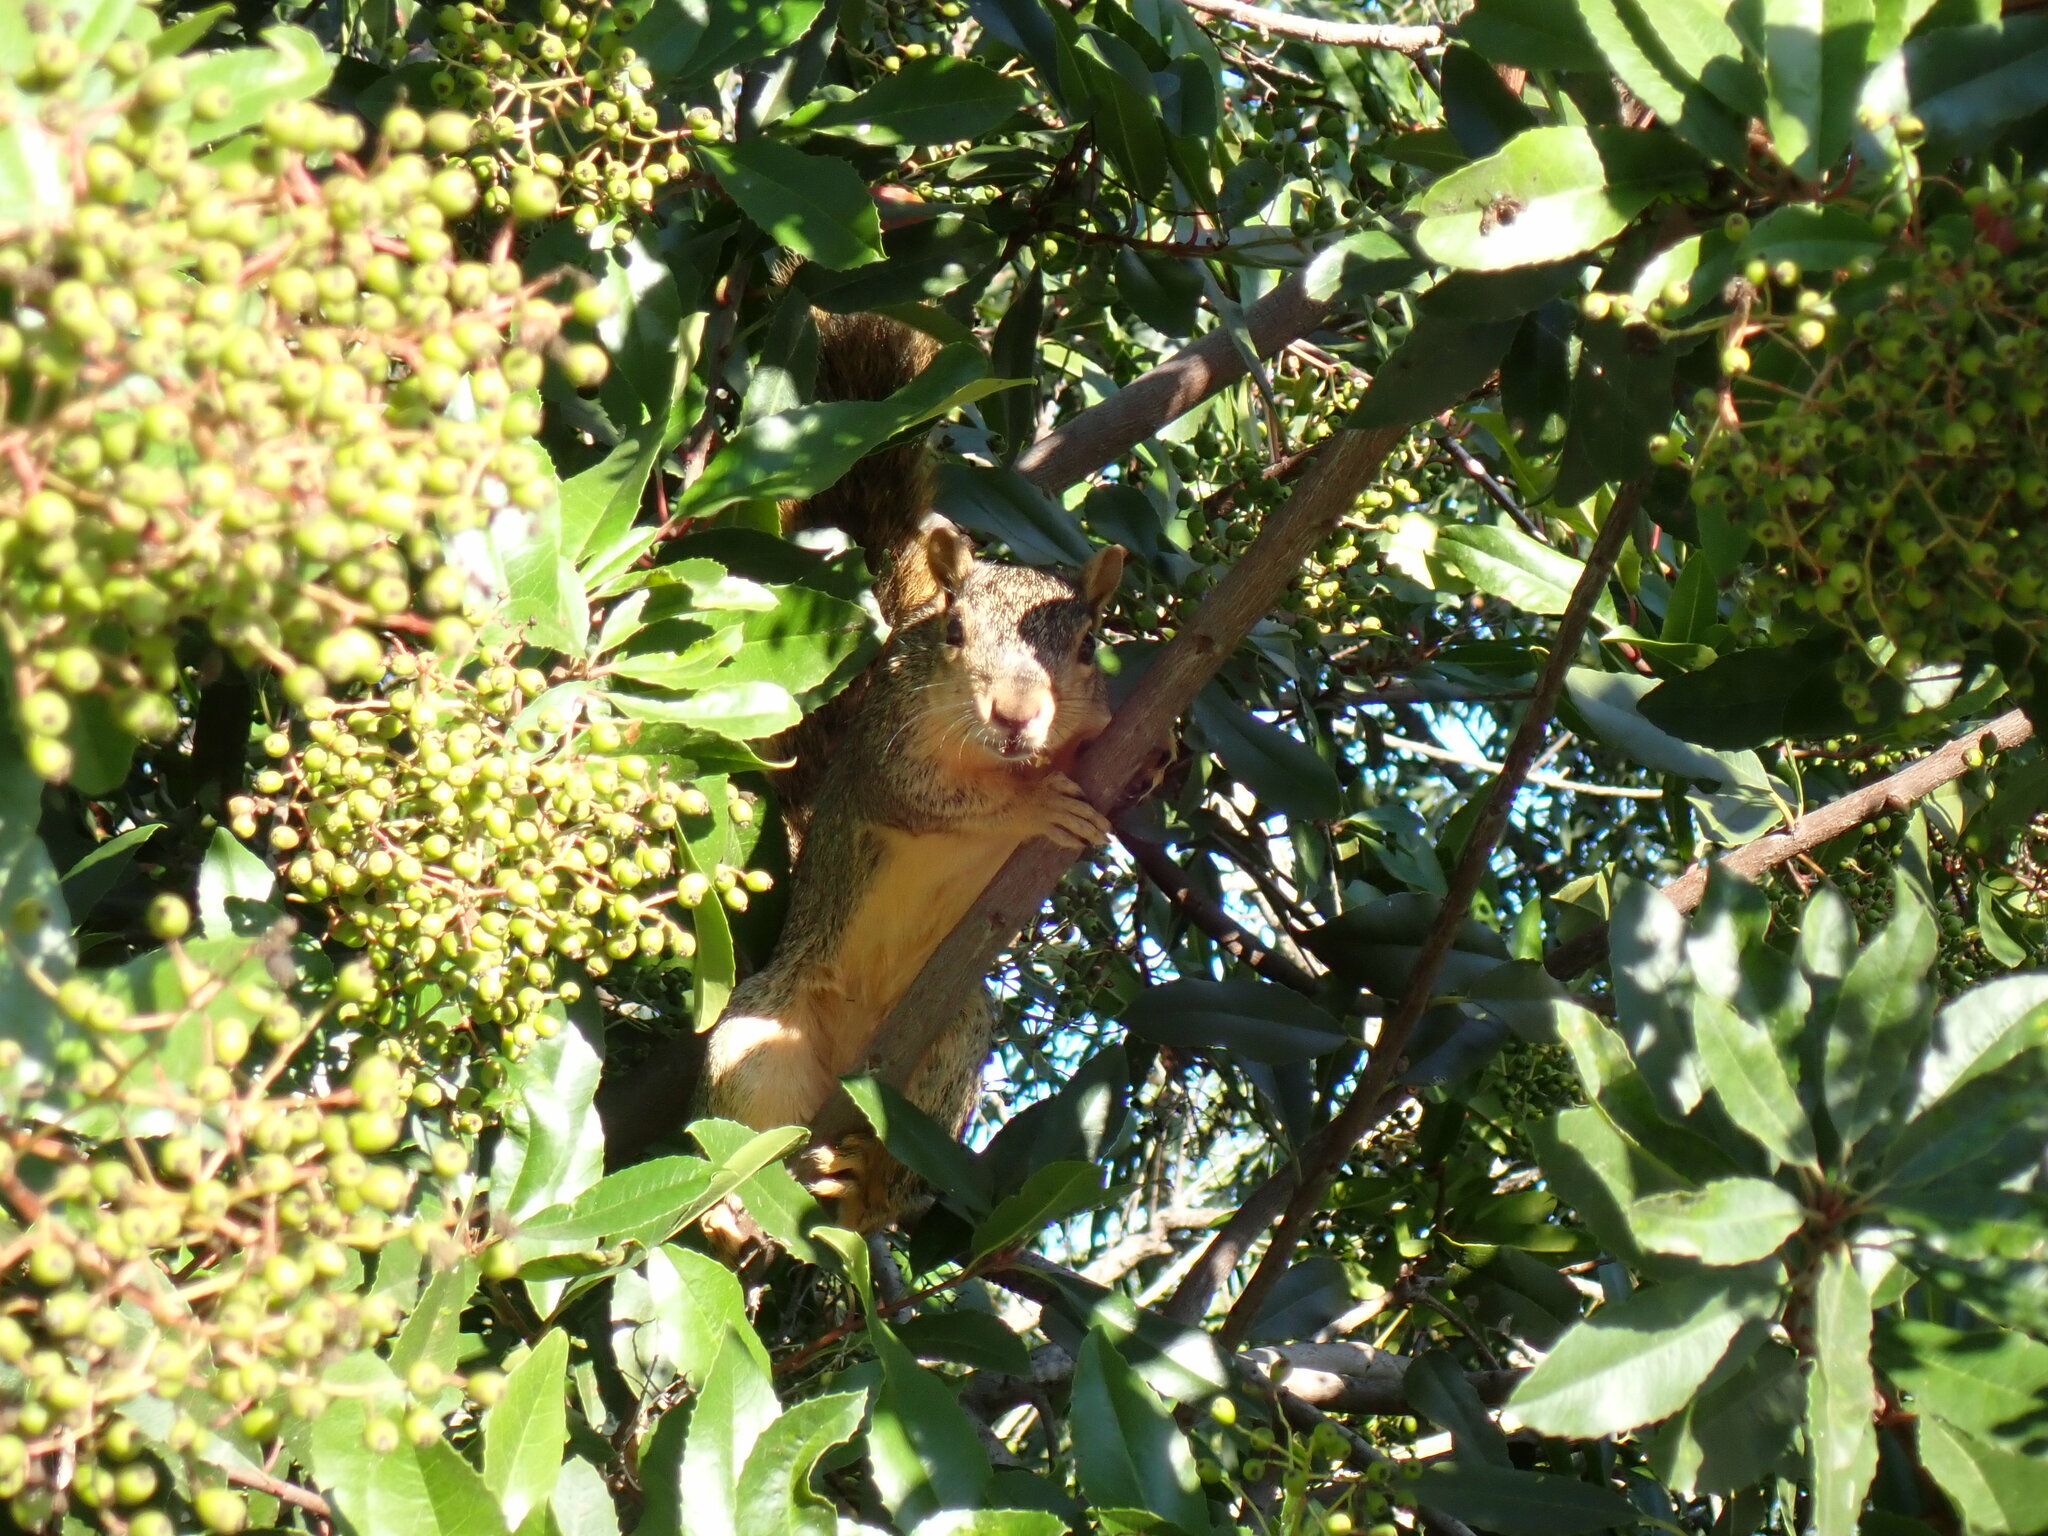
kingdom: Animalia
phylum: Chordata
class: Mammalia
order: Rodentia
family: Sciuridae
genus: Sciurus
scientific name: Sciurus niger
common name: Fox squirrel
